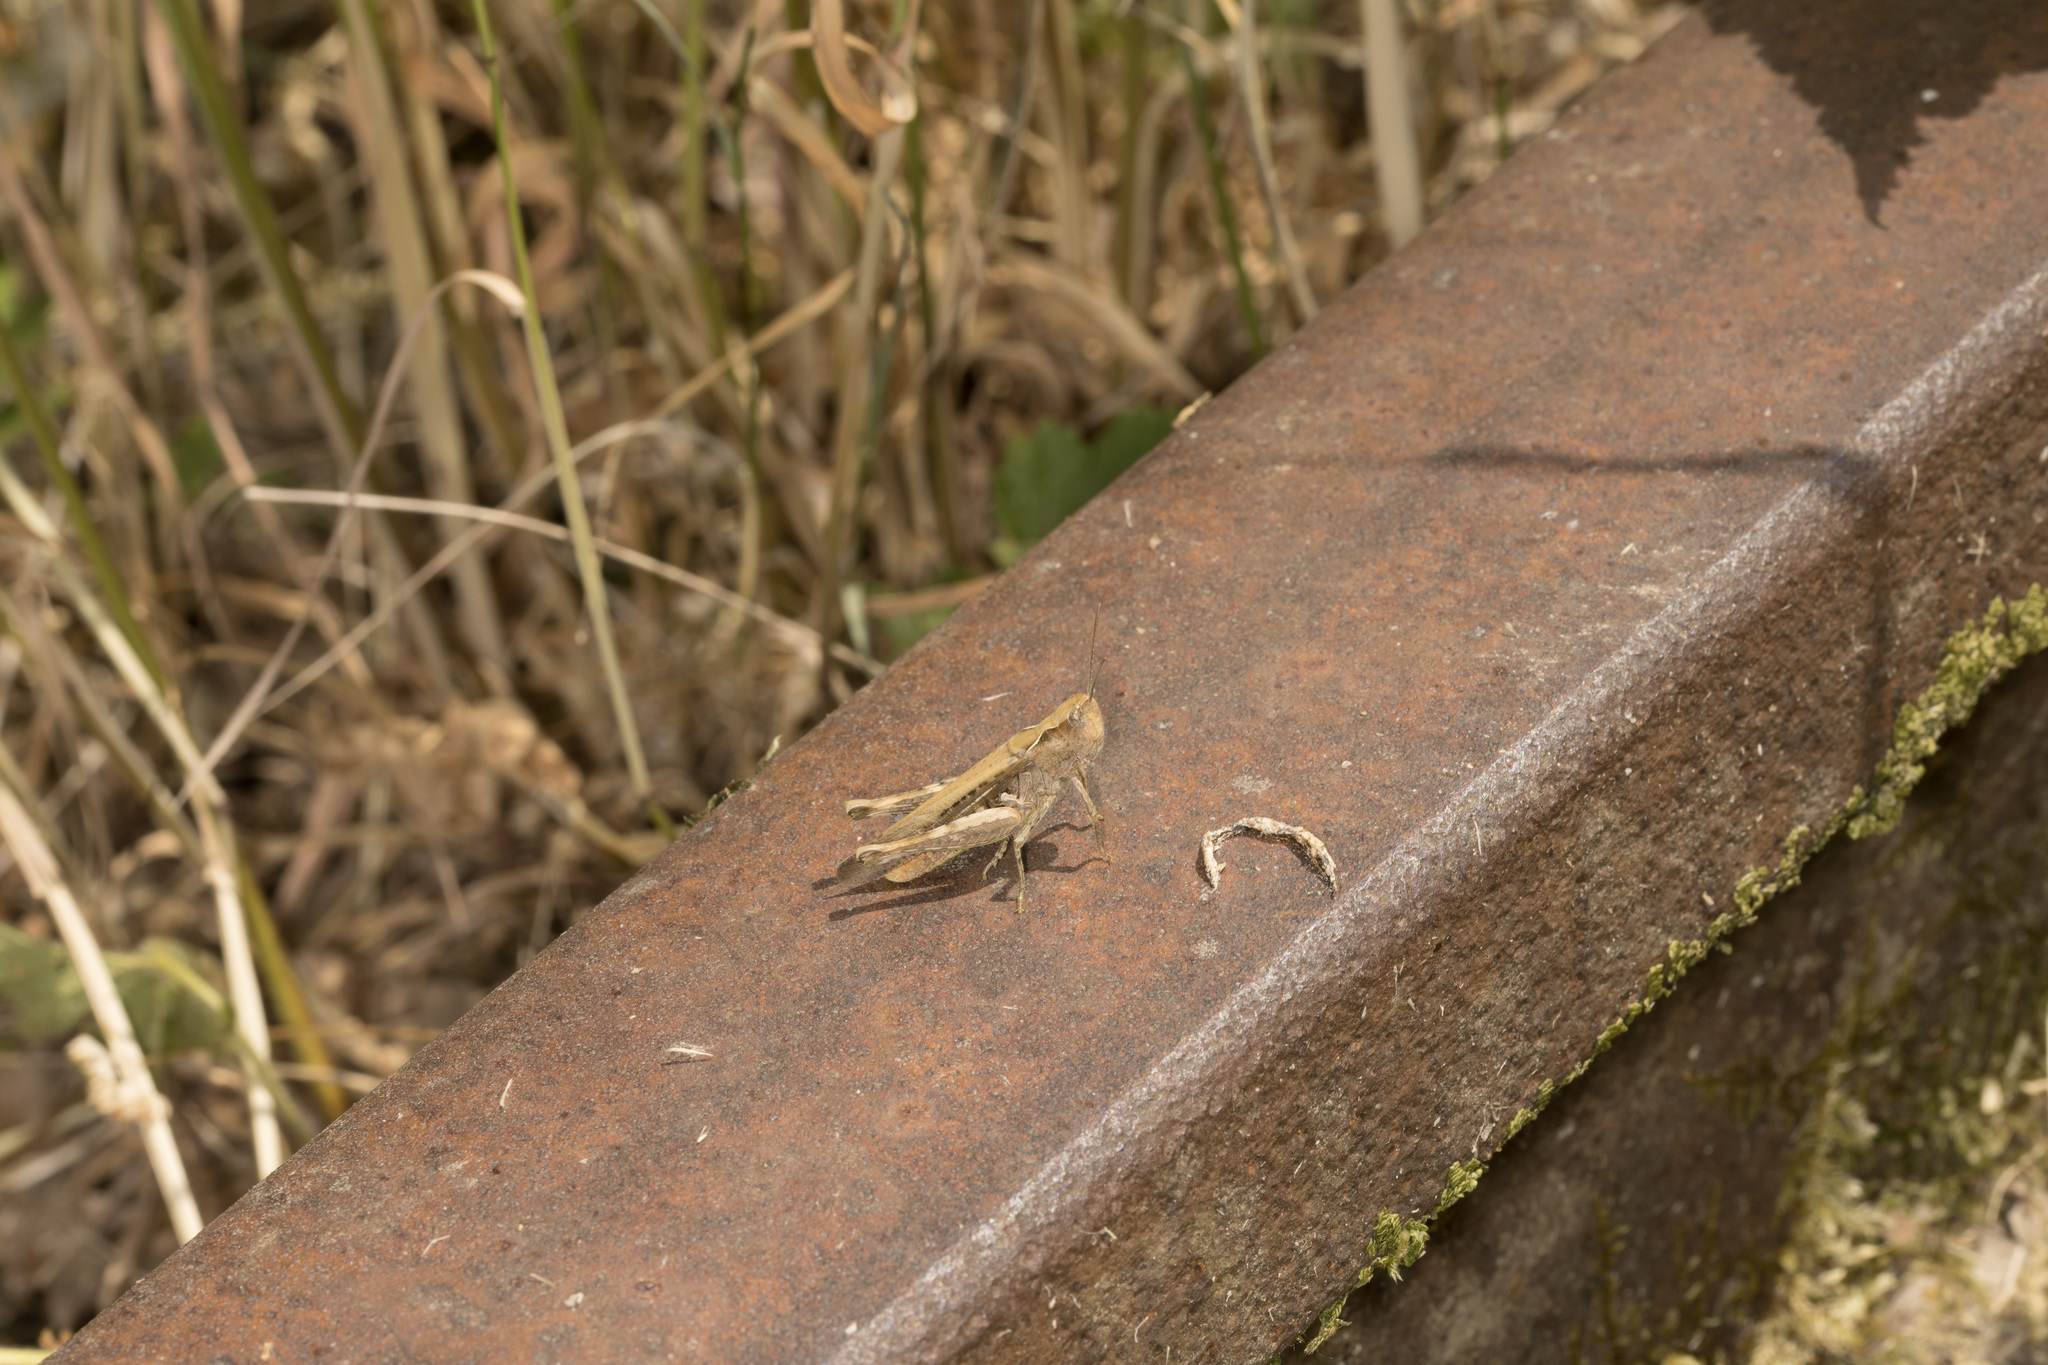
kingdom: Animalia
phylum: Arthropoda
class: Insecta
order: Orthoptera
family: Acrididae
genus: Chorthippus
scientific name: Chorthippus brunneus
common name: Field grasshopper
